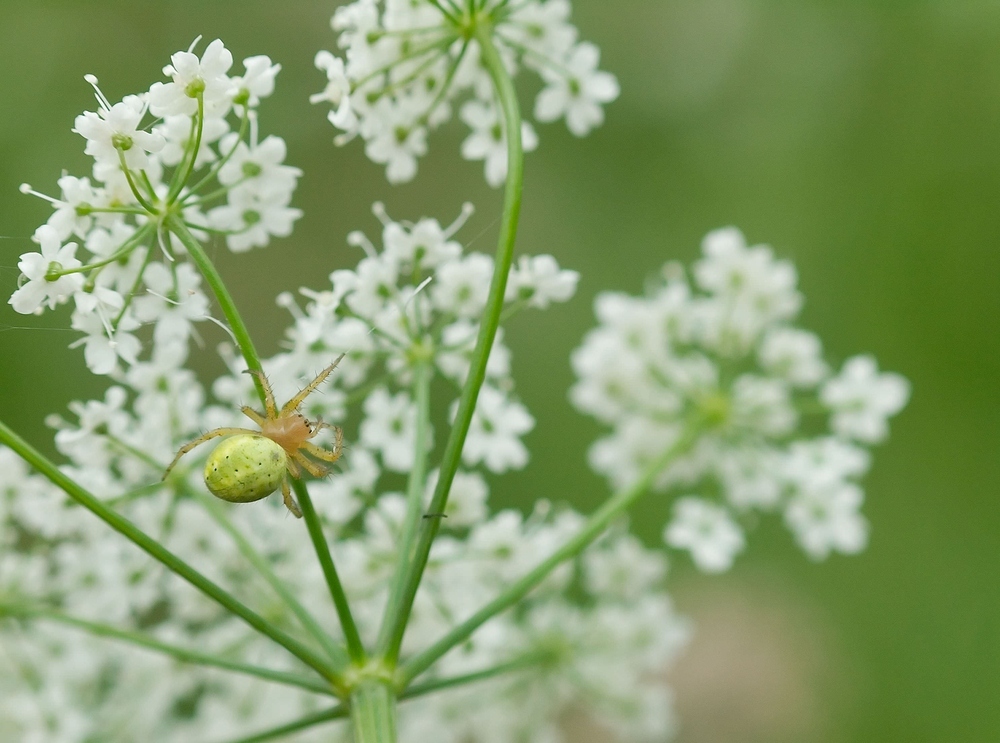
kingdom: Animalia
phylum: Arthropoda
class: Arachnida
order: Araneae
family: Araneidae
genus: Araniella
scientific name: Araniella
